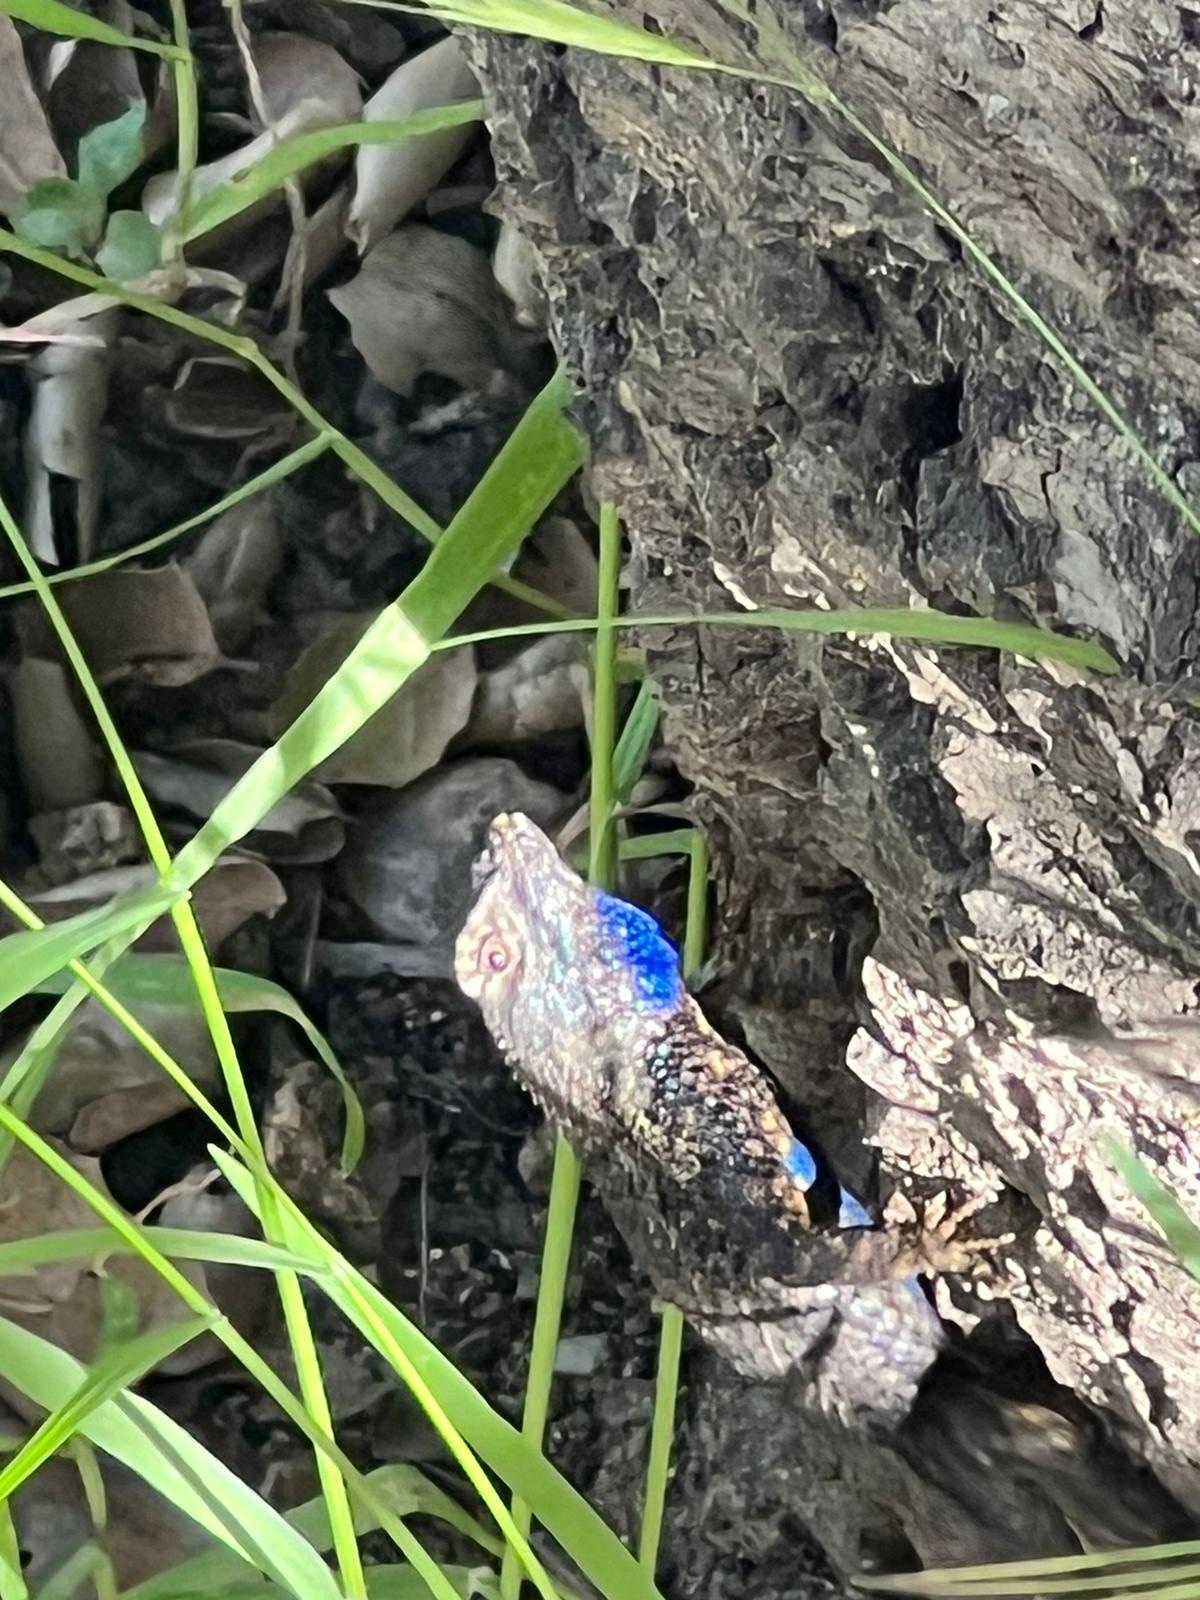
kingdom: Animalia
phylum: Chordata
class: Squamata
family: Phrynosomatidae
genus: Sceloporus
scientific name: Sceloporus occidentalis
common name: Western fence lizard
